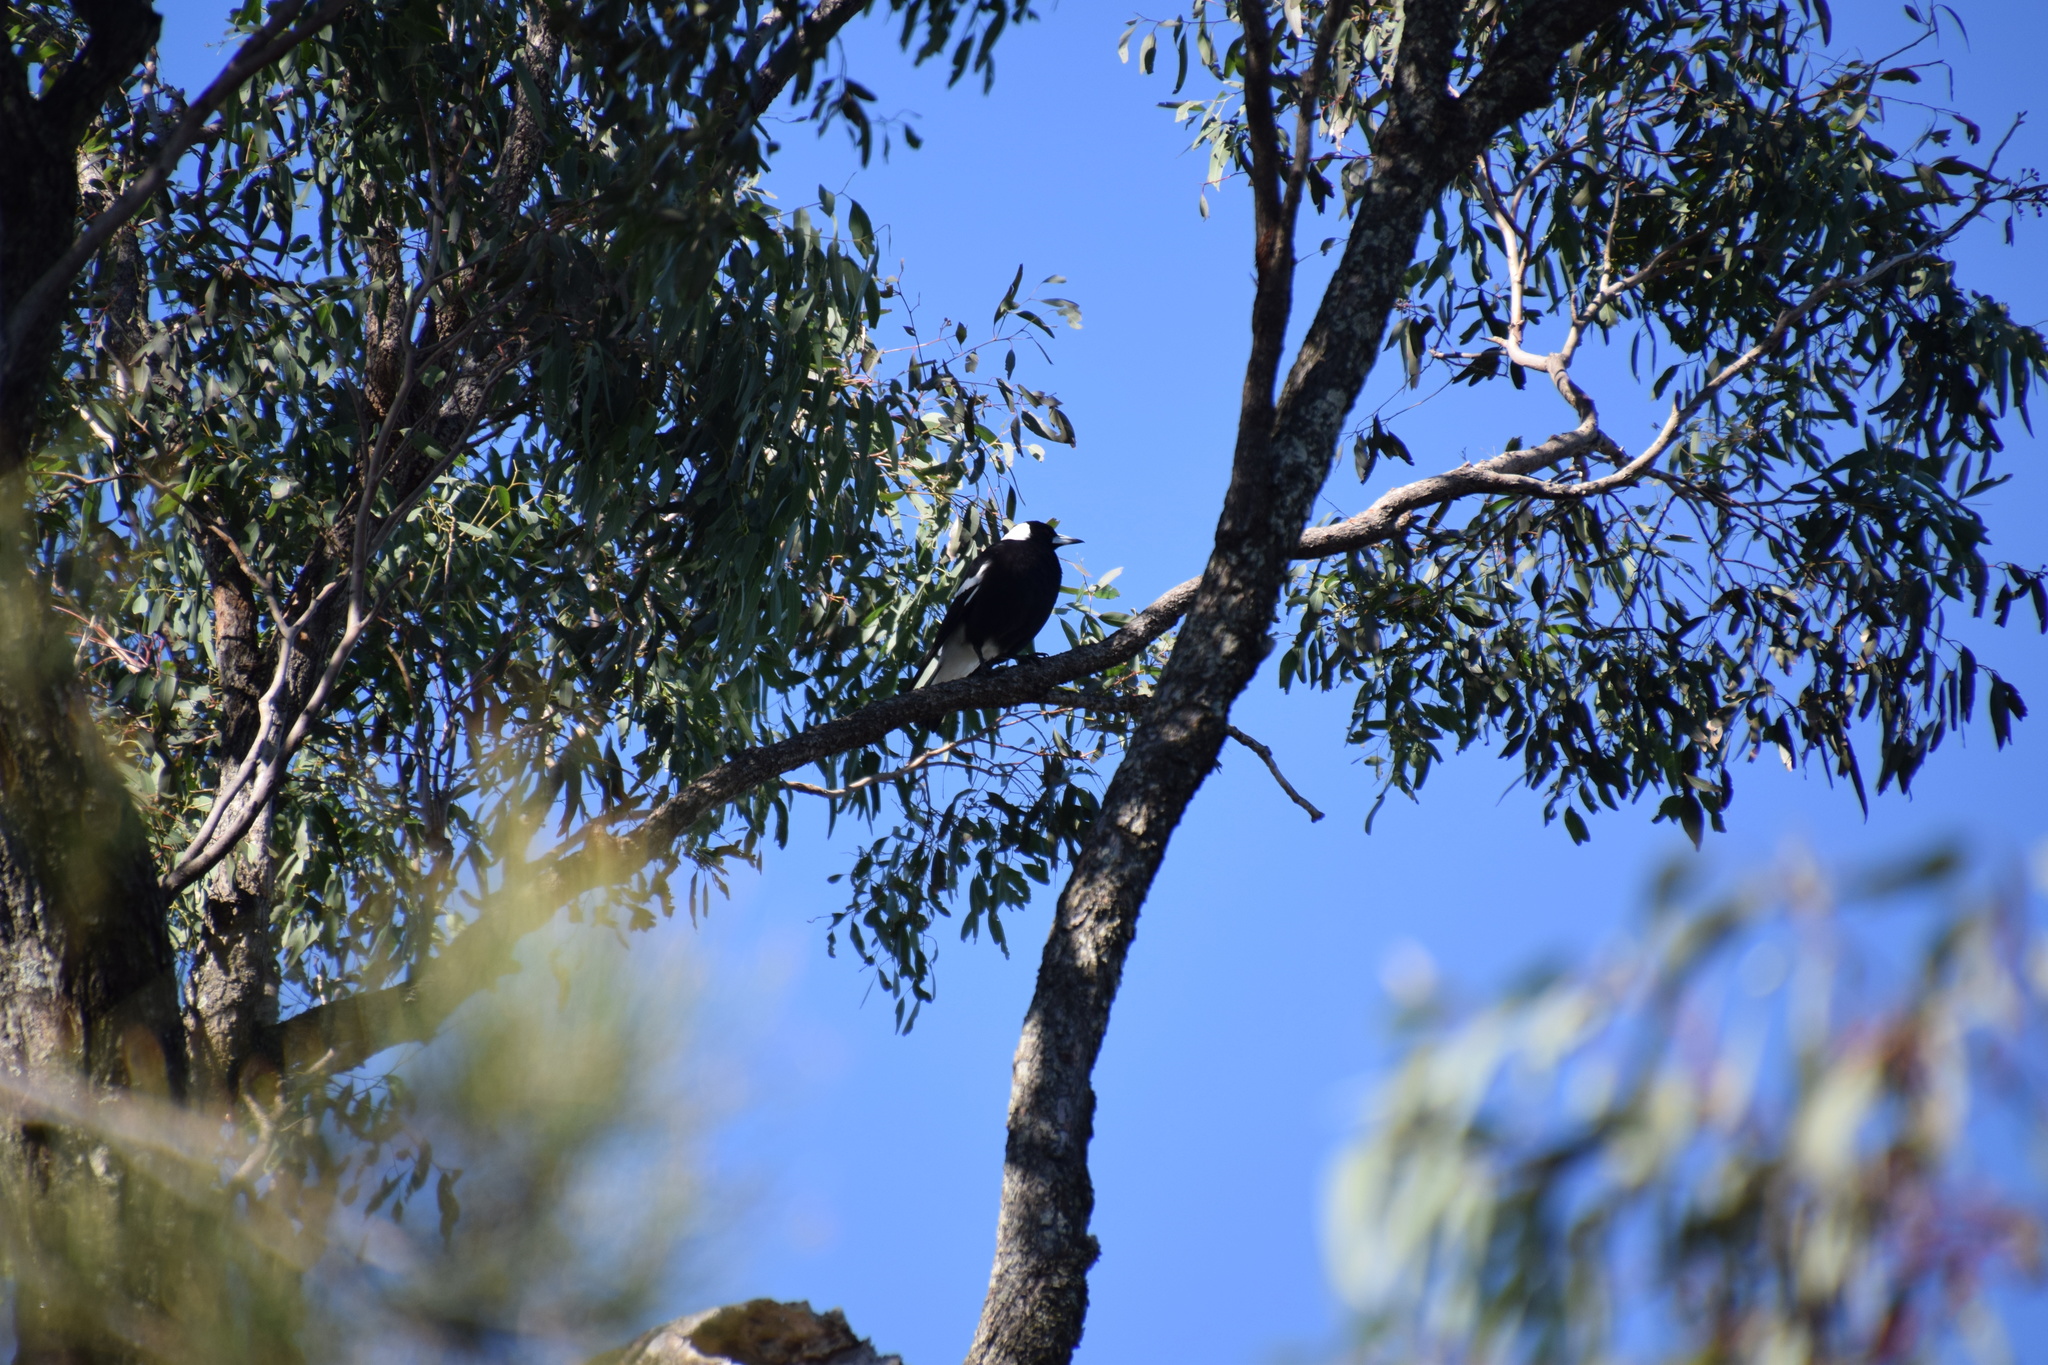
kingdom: Animalia
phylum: Chordata
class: Aves
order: Passeriformes
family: Cracticidae
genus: Gymnorhina
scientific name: Gymnorhina tibicen
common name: Australian magpie
